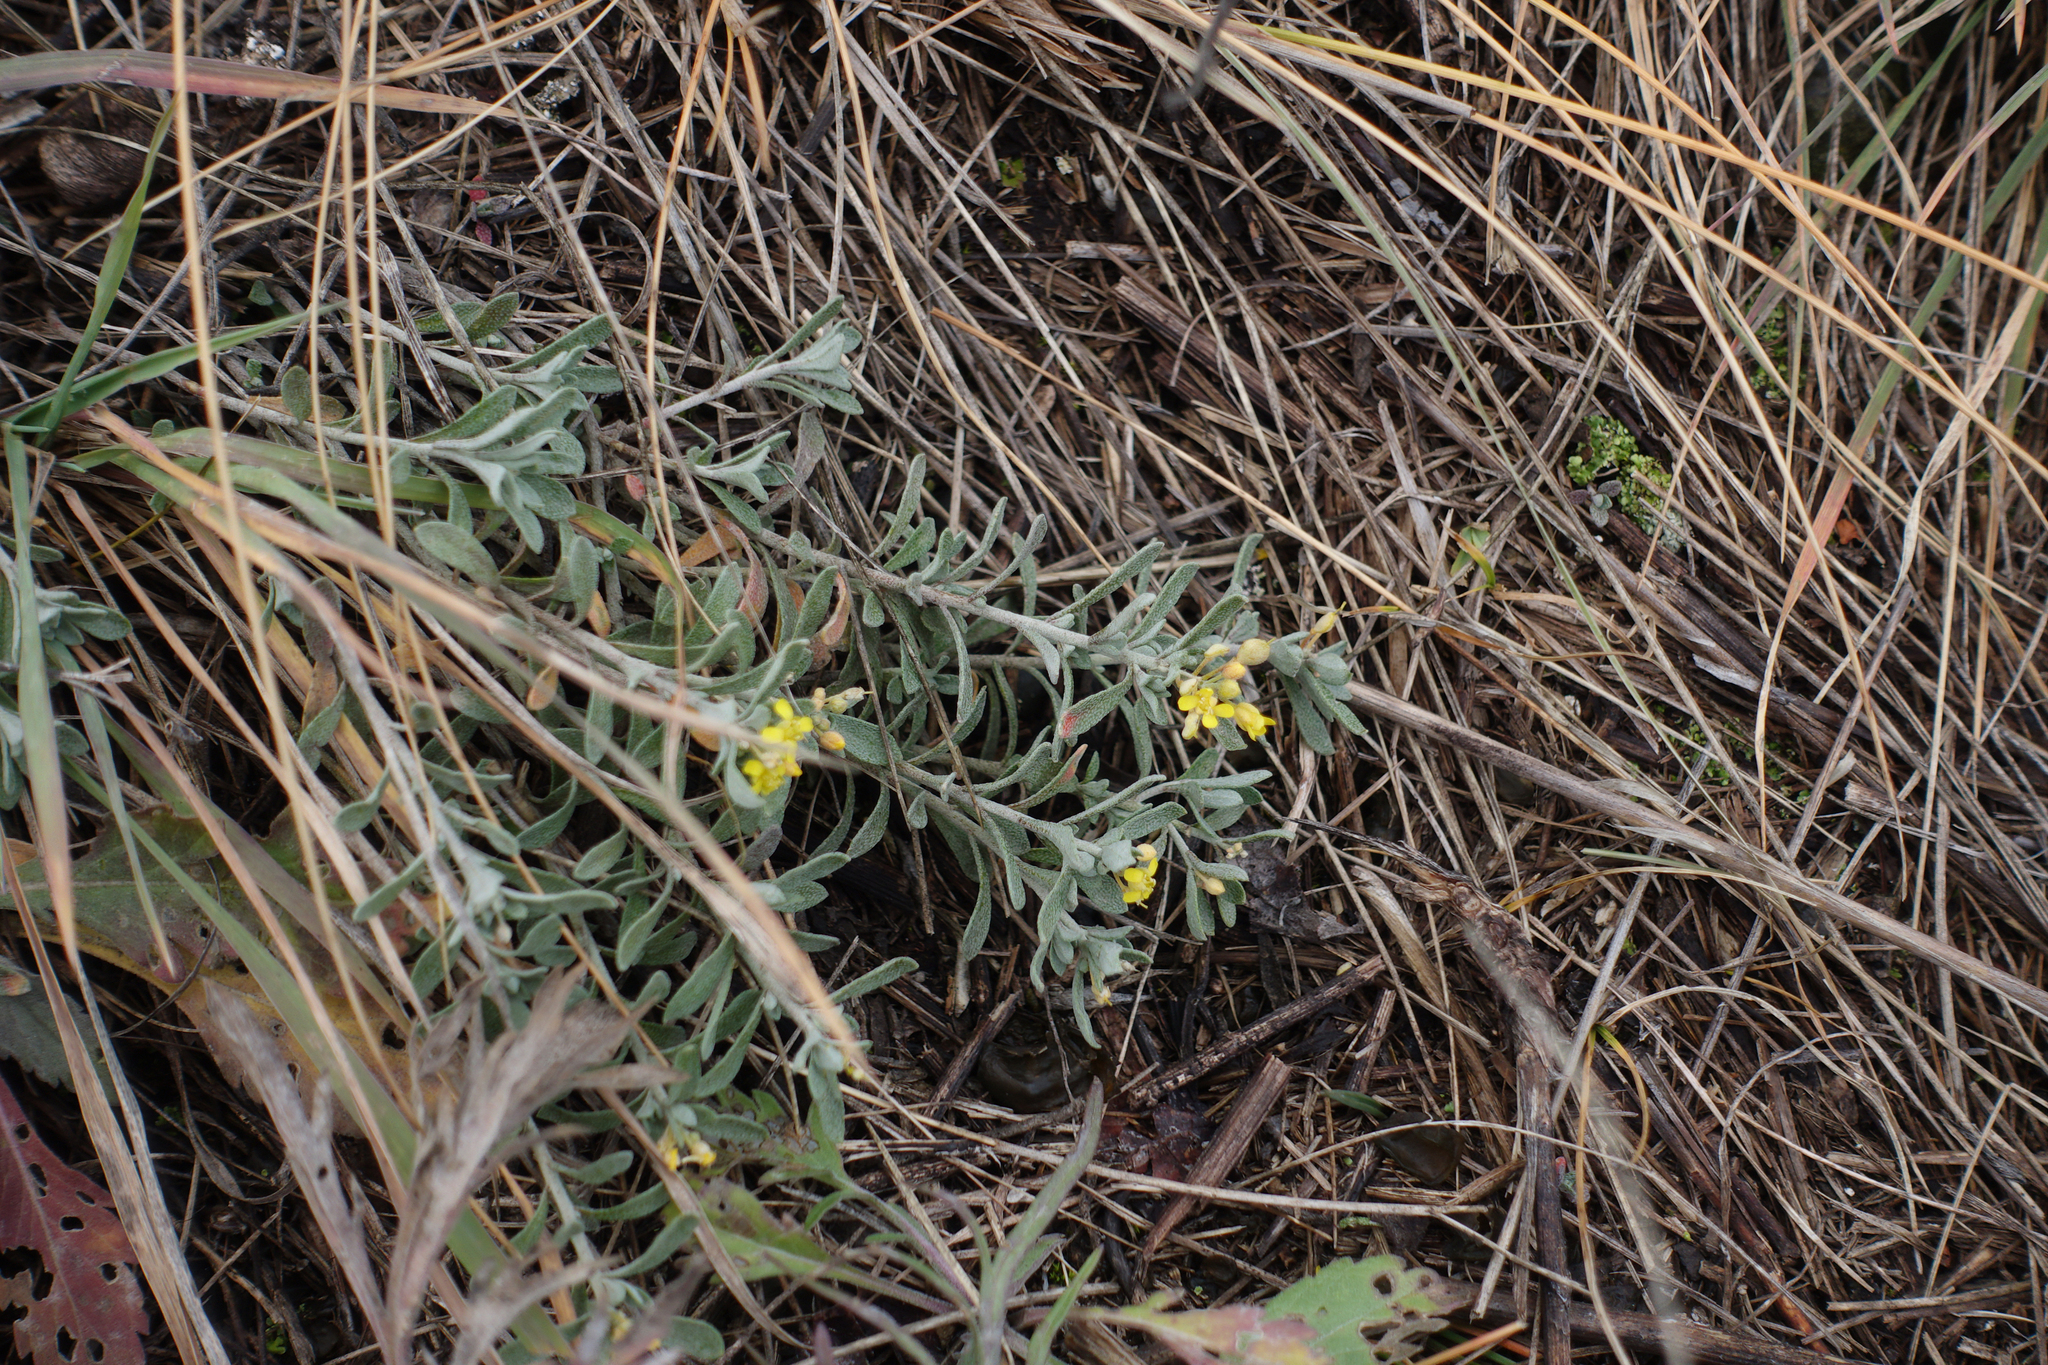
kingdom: Plantae
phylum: Tracheophyta
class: Magnoliopsida
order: Brassicales
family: Brassicaceae
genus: Odontarrhena
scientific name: Odontarrhena obovata
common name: American alyssum
